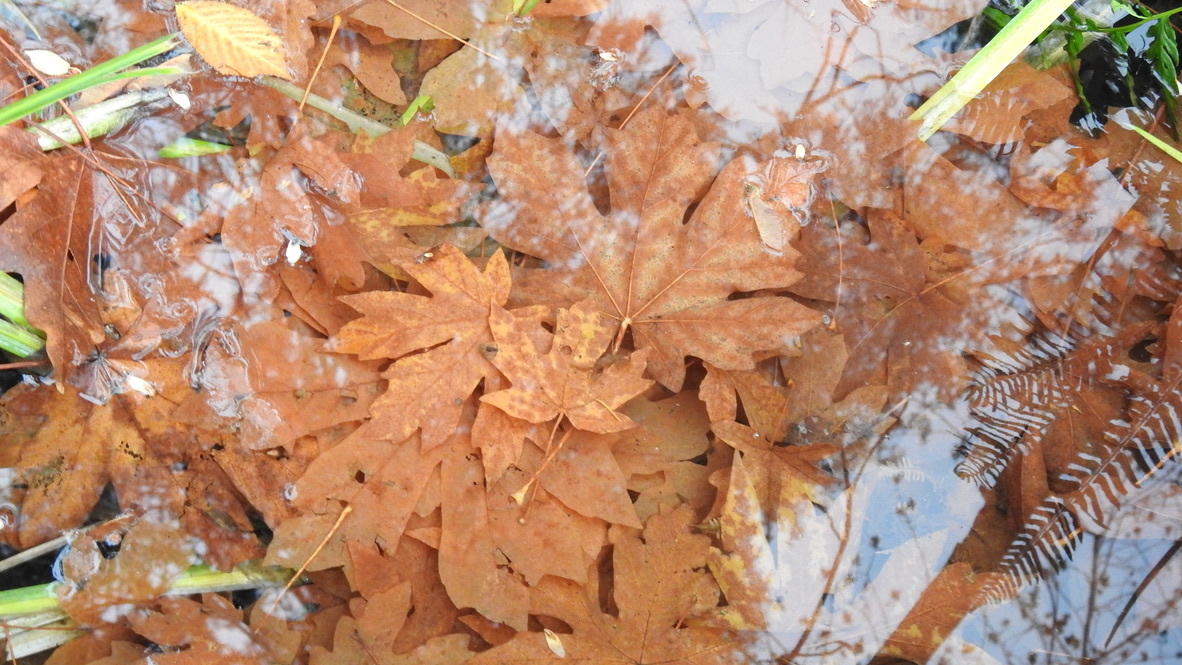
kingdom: Plantae
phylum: Tracheophyta
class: Magnoliopsida
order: Sapindales
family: Sapindaceae
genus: Acer
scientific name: Acer macrophyllum
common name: Oregon maple
